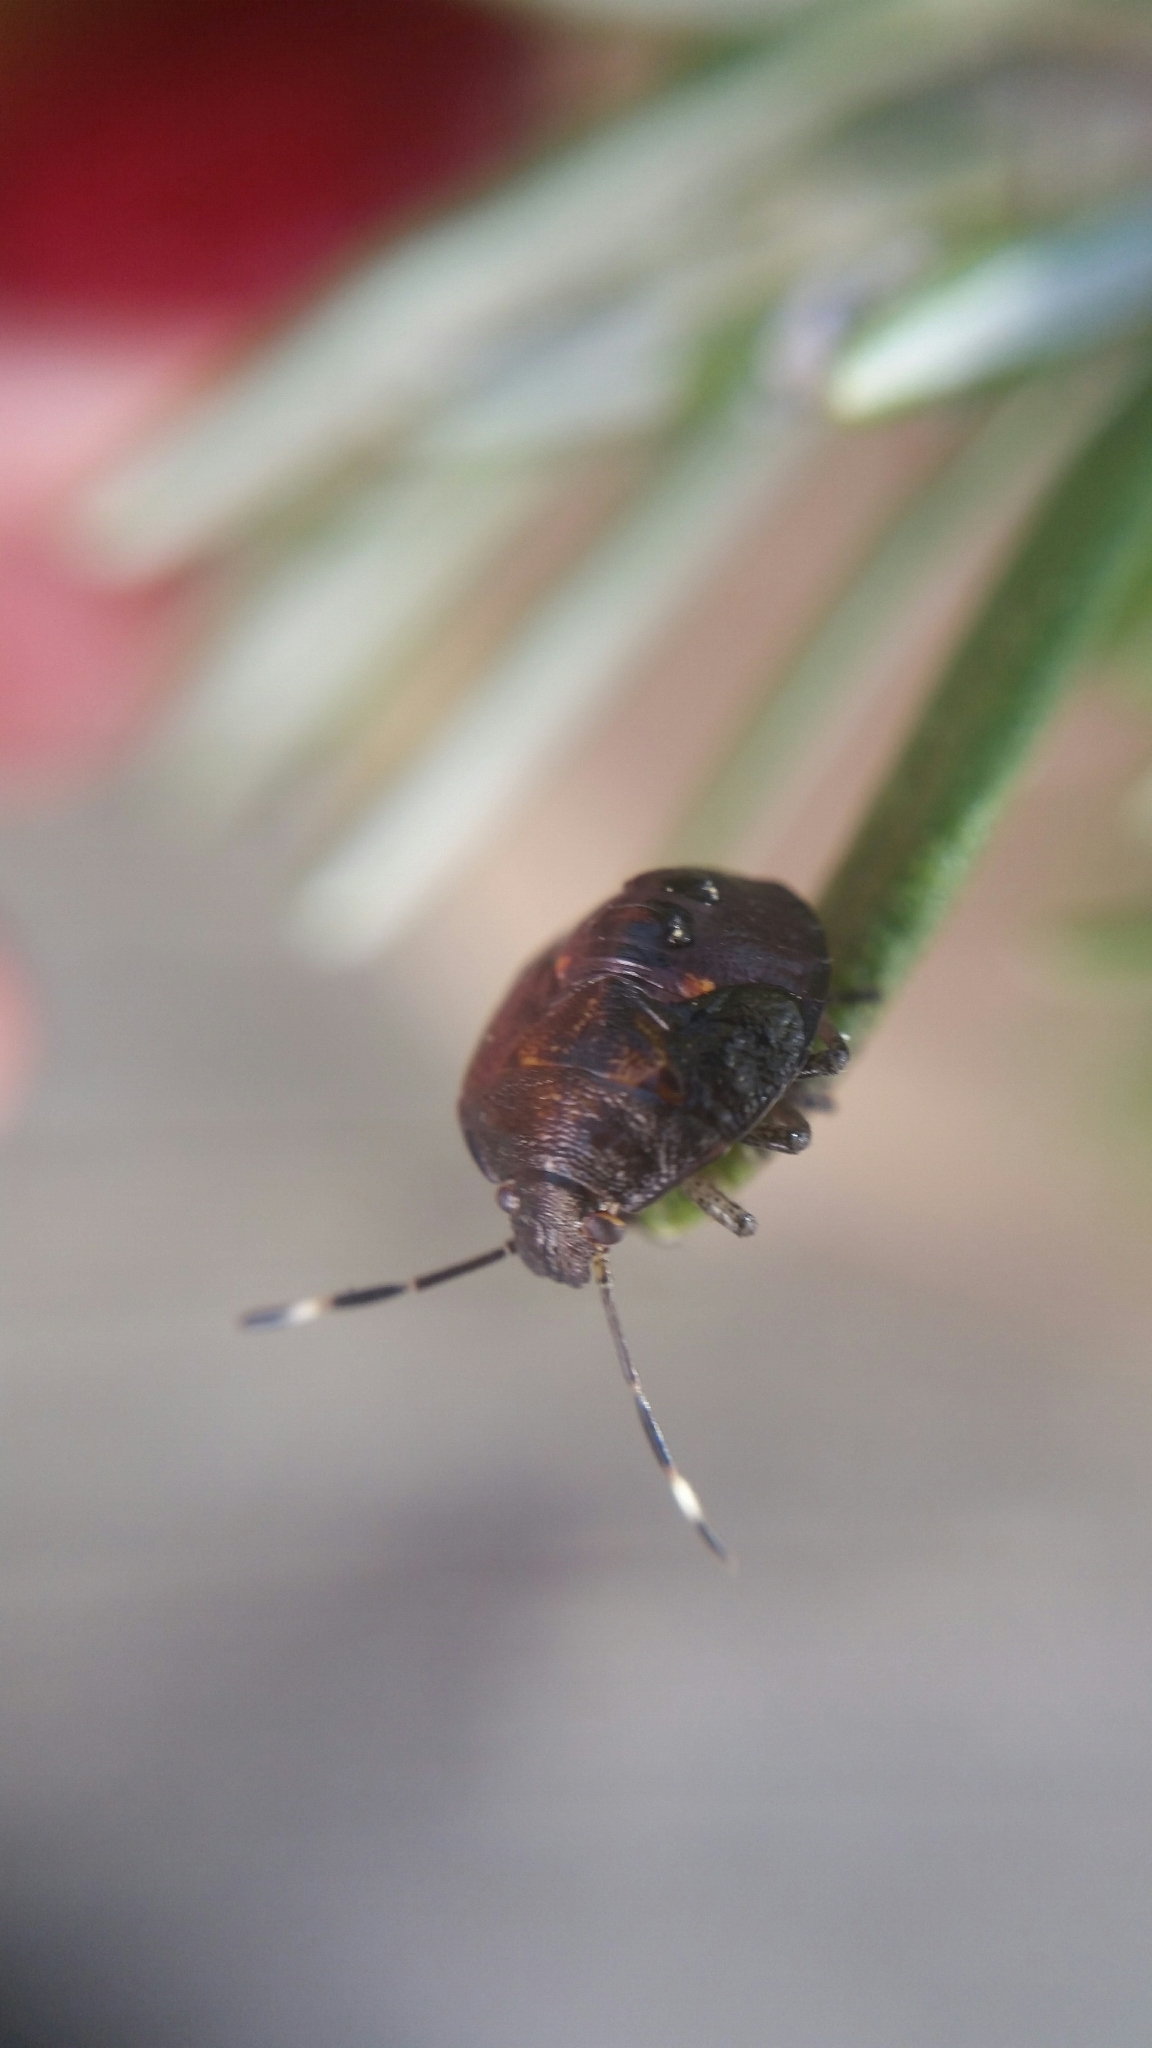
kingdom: Animalia
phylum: Arthropoda
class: Insecta
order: Hemiptera
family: Pentatomidae
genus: Monteithiella
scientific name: Monteithiella
